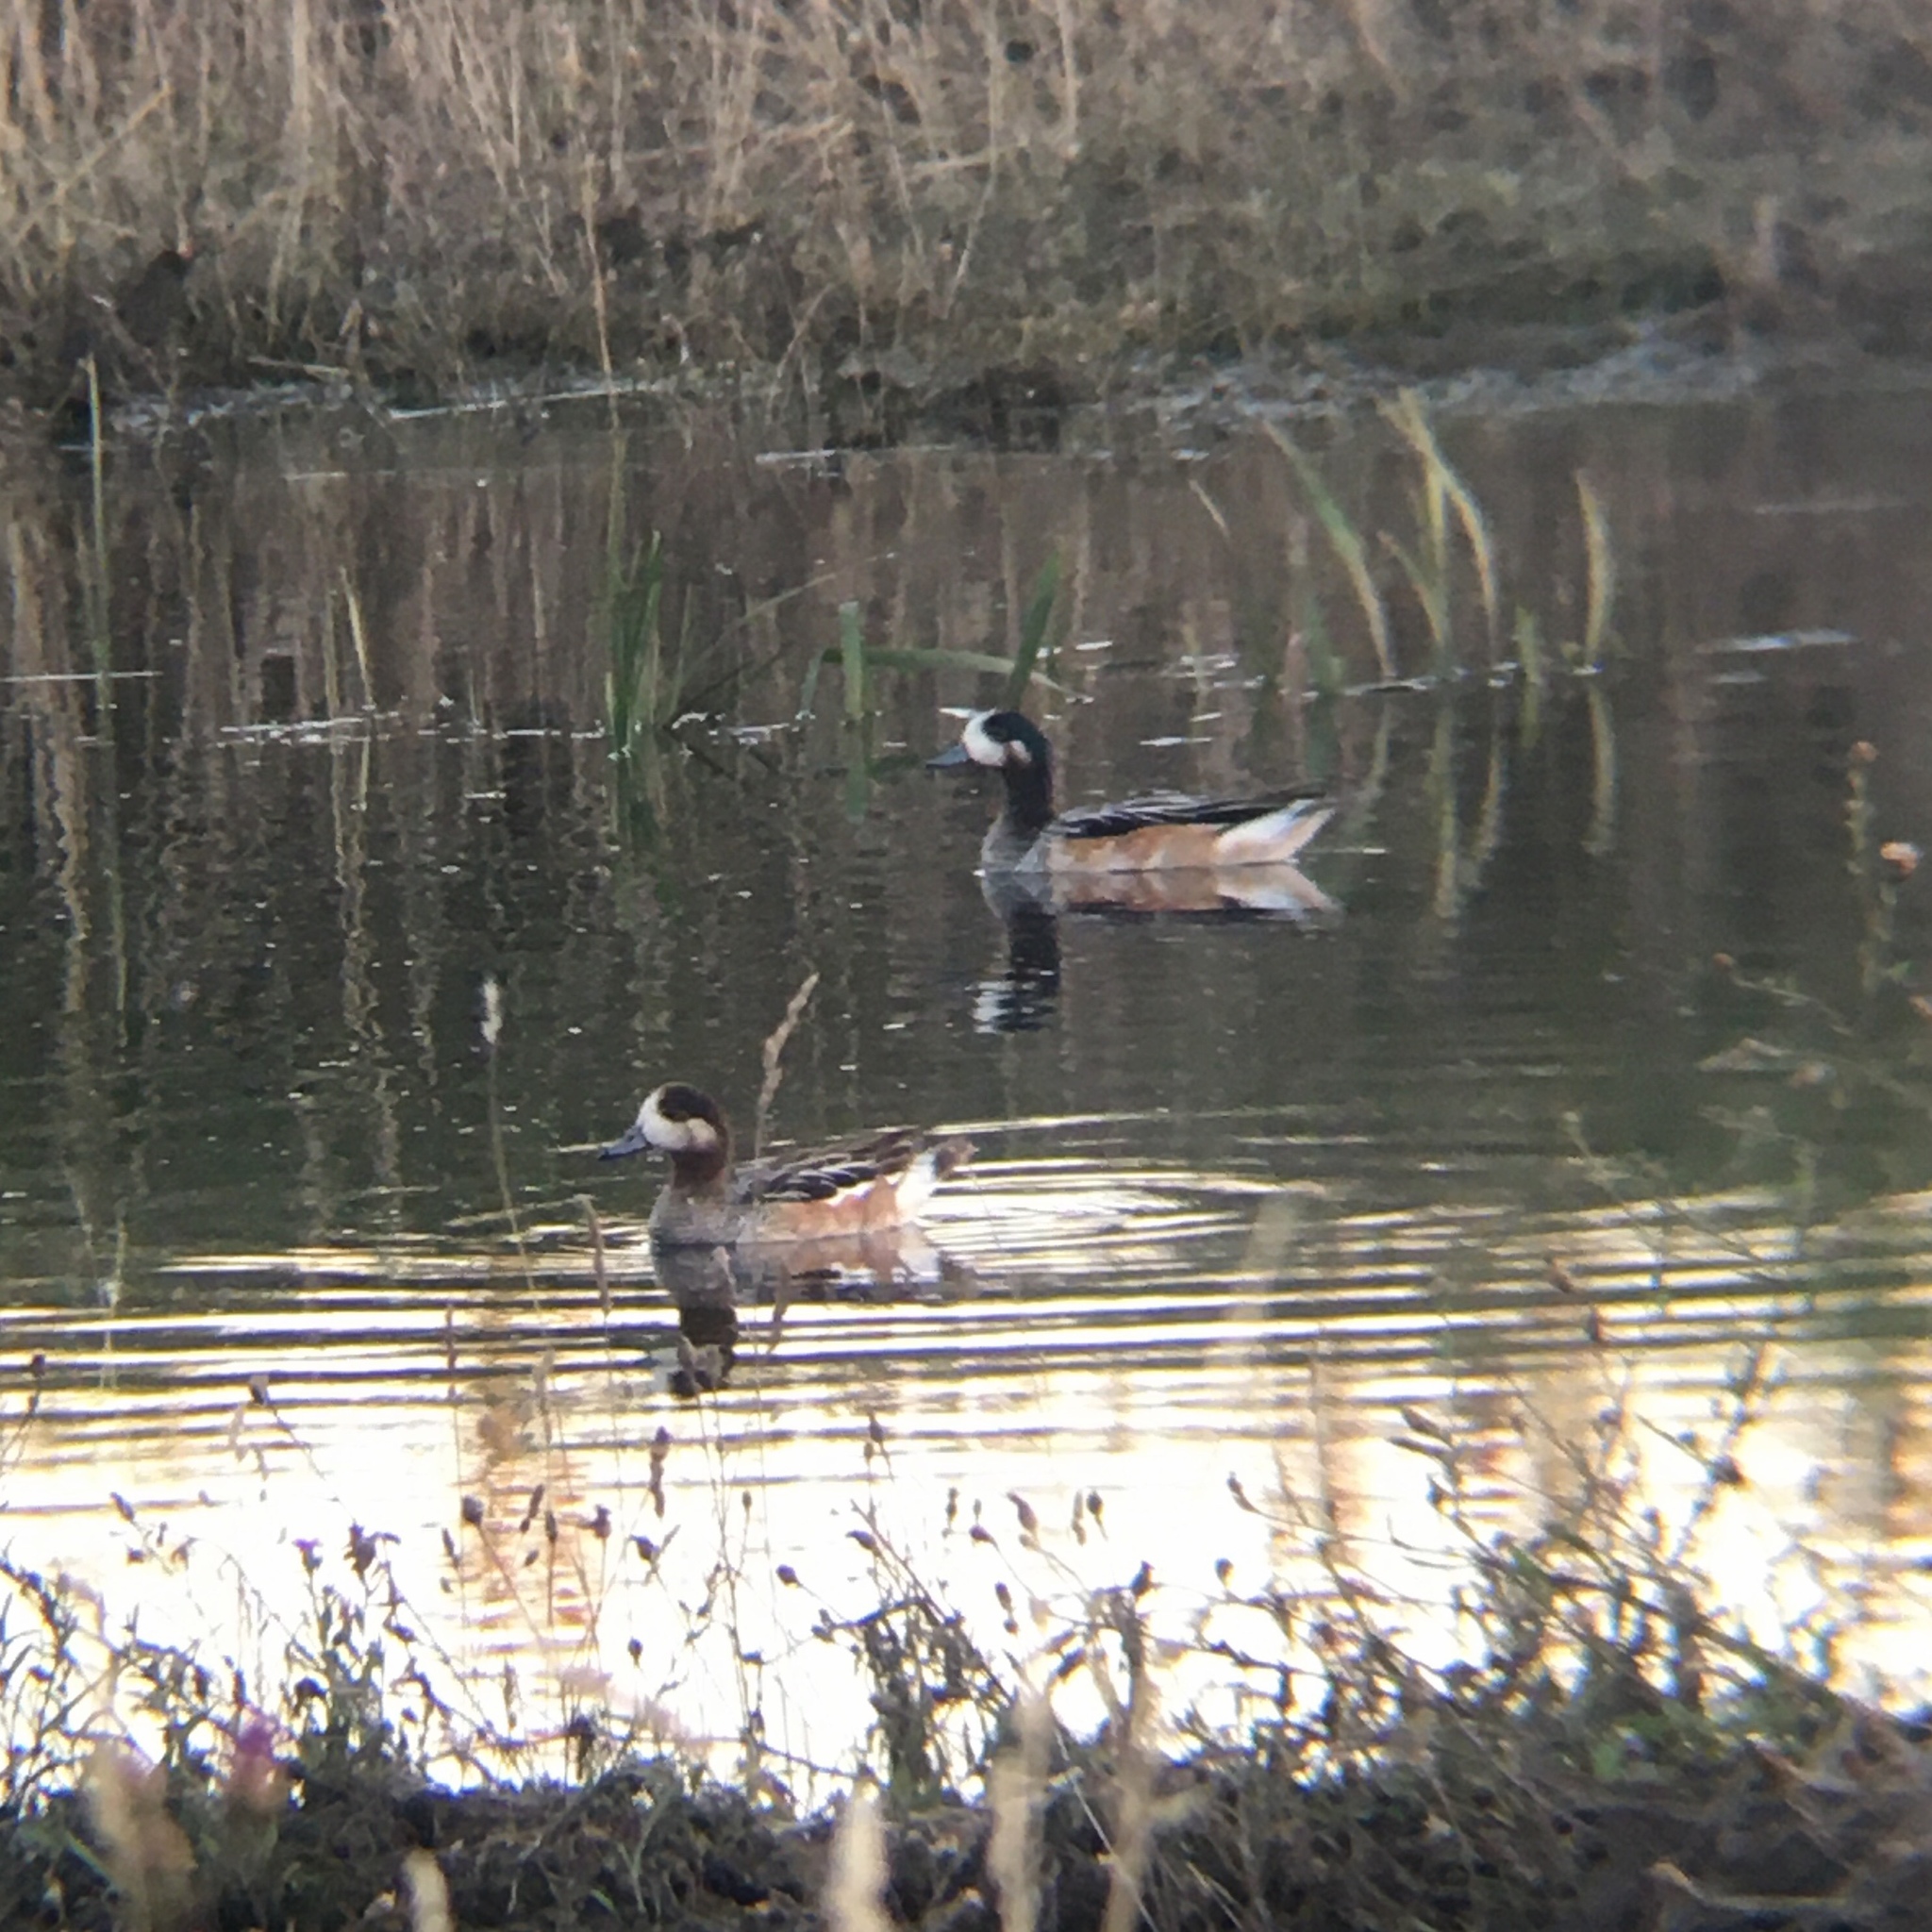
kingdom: Animalia
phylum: Chordata
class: Aves
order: Anseriformes
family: Anatidae
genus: Mareca
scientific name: Mareca sibilatrix
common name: Chiloe wigeon
